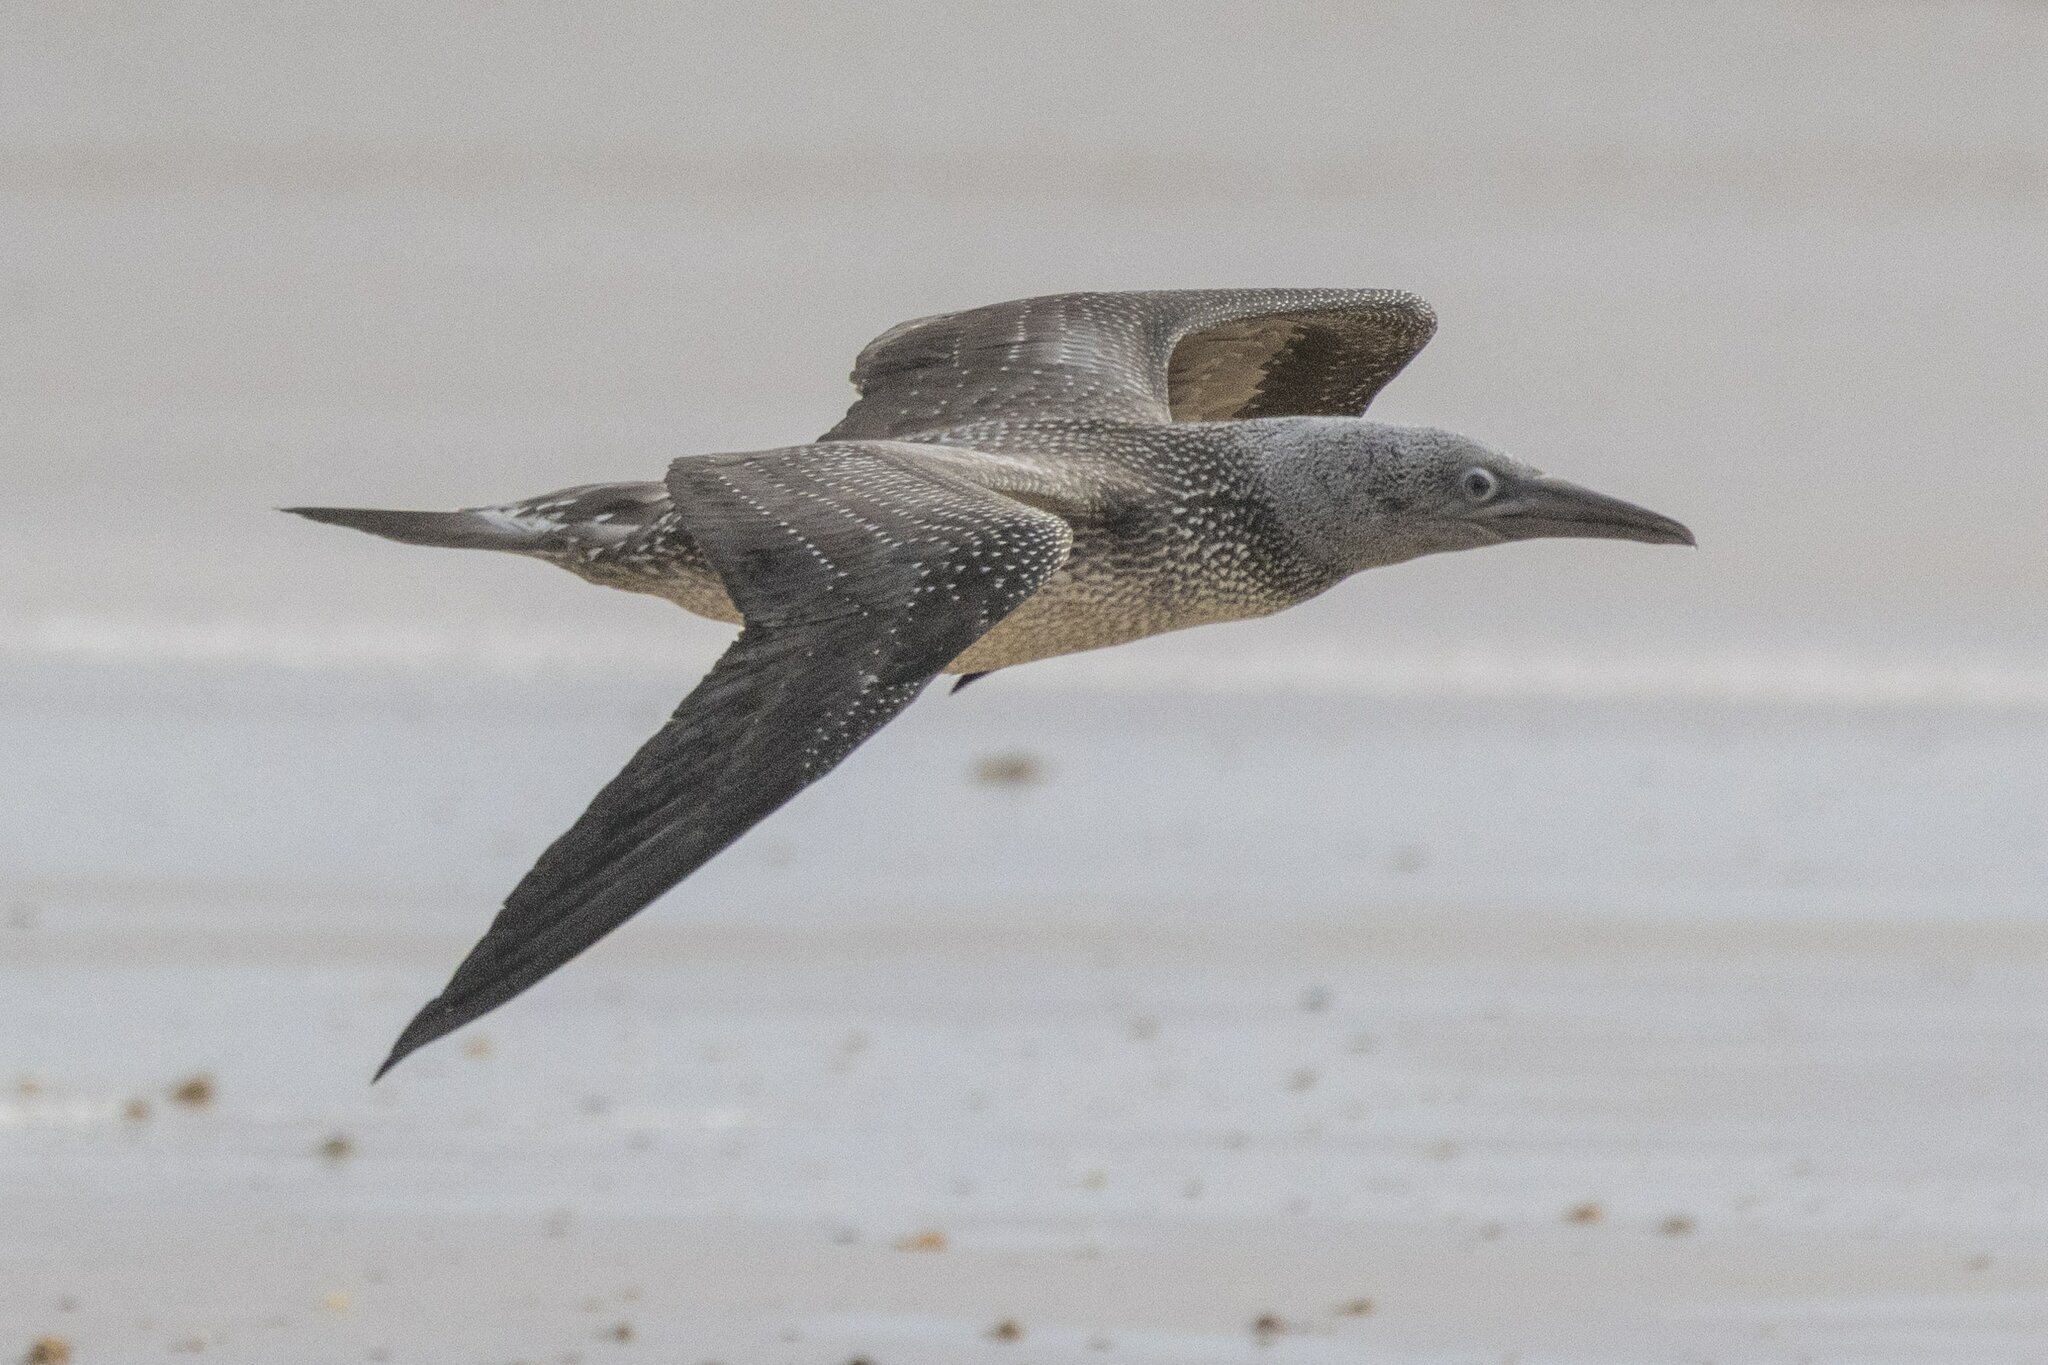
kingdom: Animalia
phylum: Chordata
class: Aves
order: Suliformes
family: Sulidae
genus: Morus
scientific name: Morus bassanus
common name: Northern gannet
